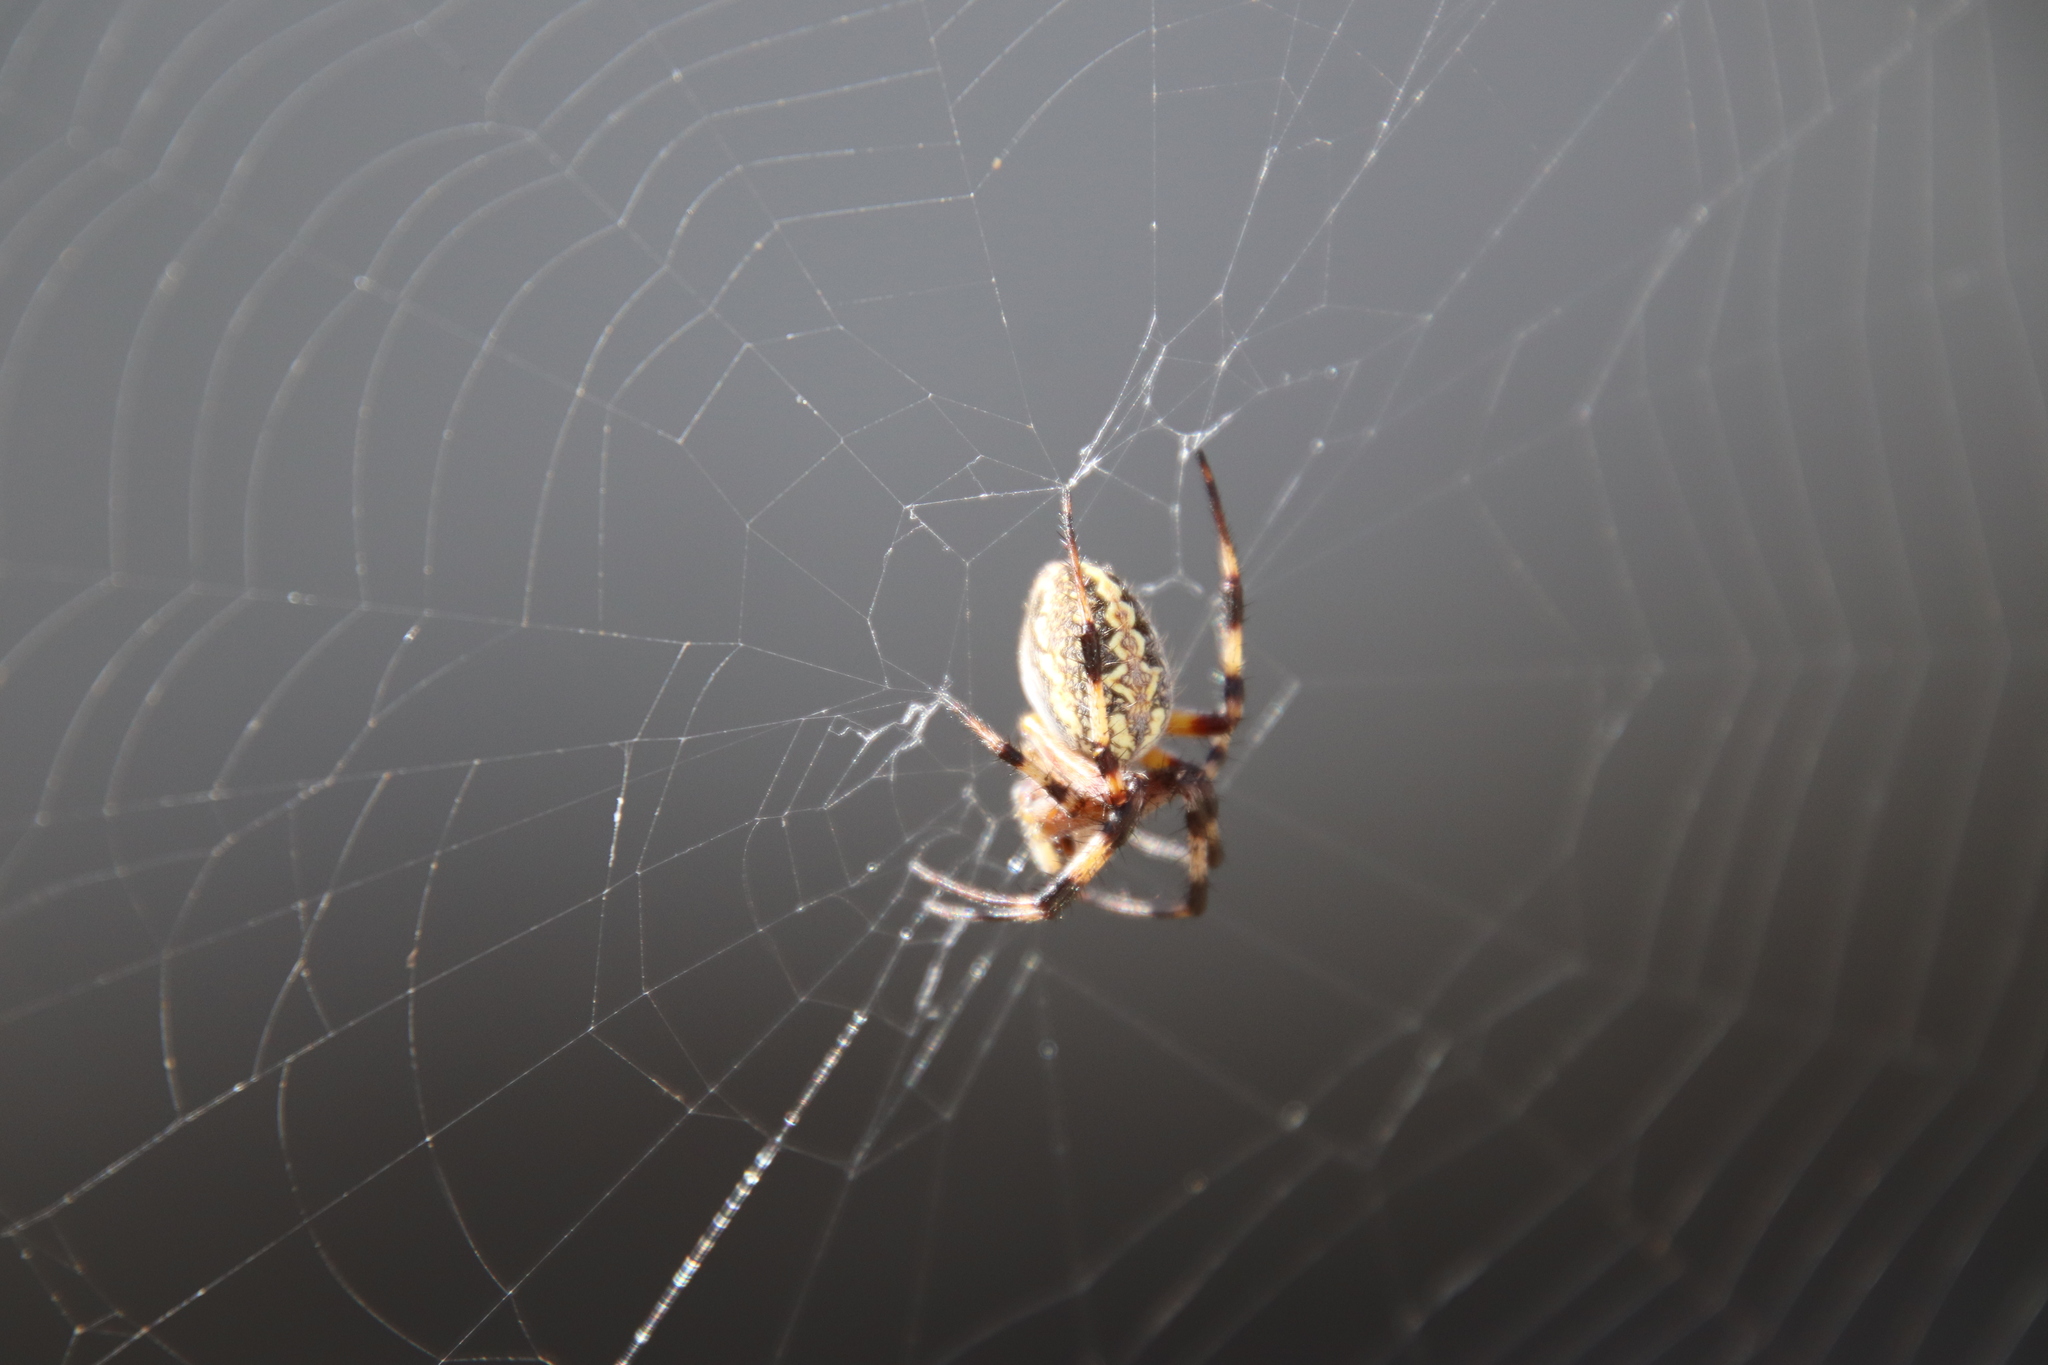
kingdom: Animalia
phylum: Arthropoda
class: Arachnida
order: Araneae
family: Araneidae
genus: Neoscona
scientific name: Neoscona oaxacensis
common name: Orb weavers
